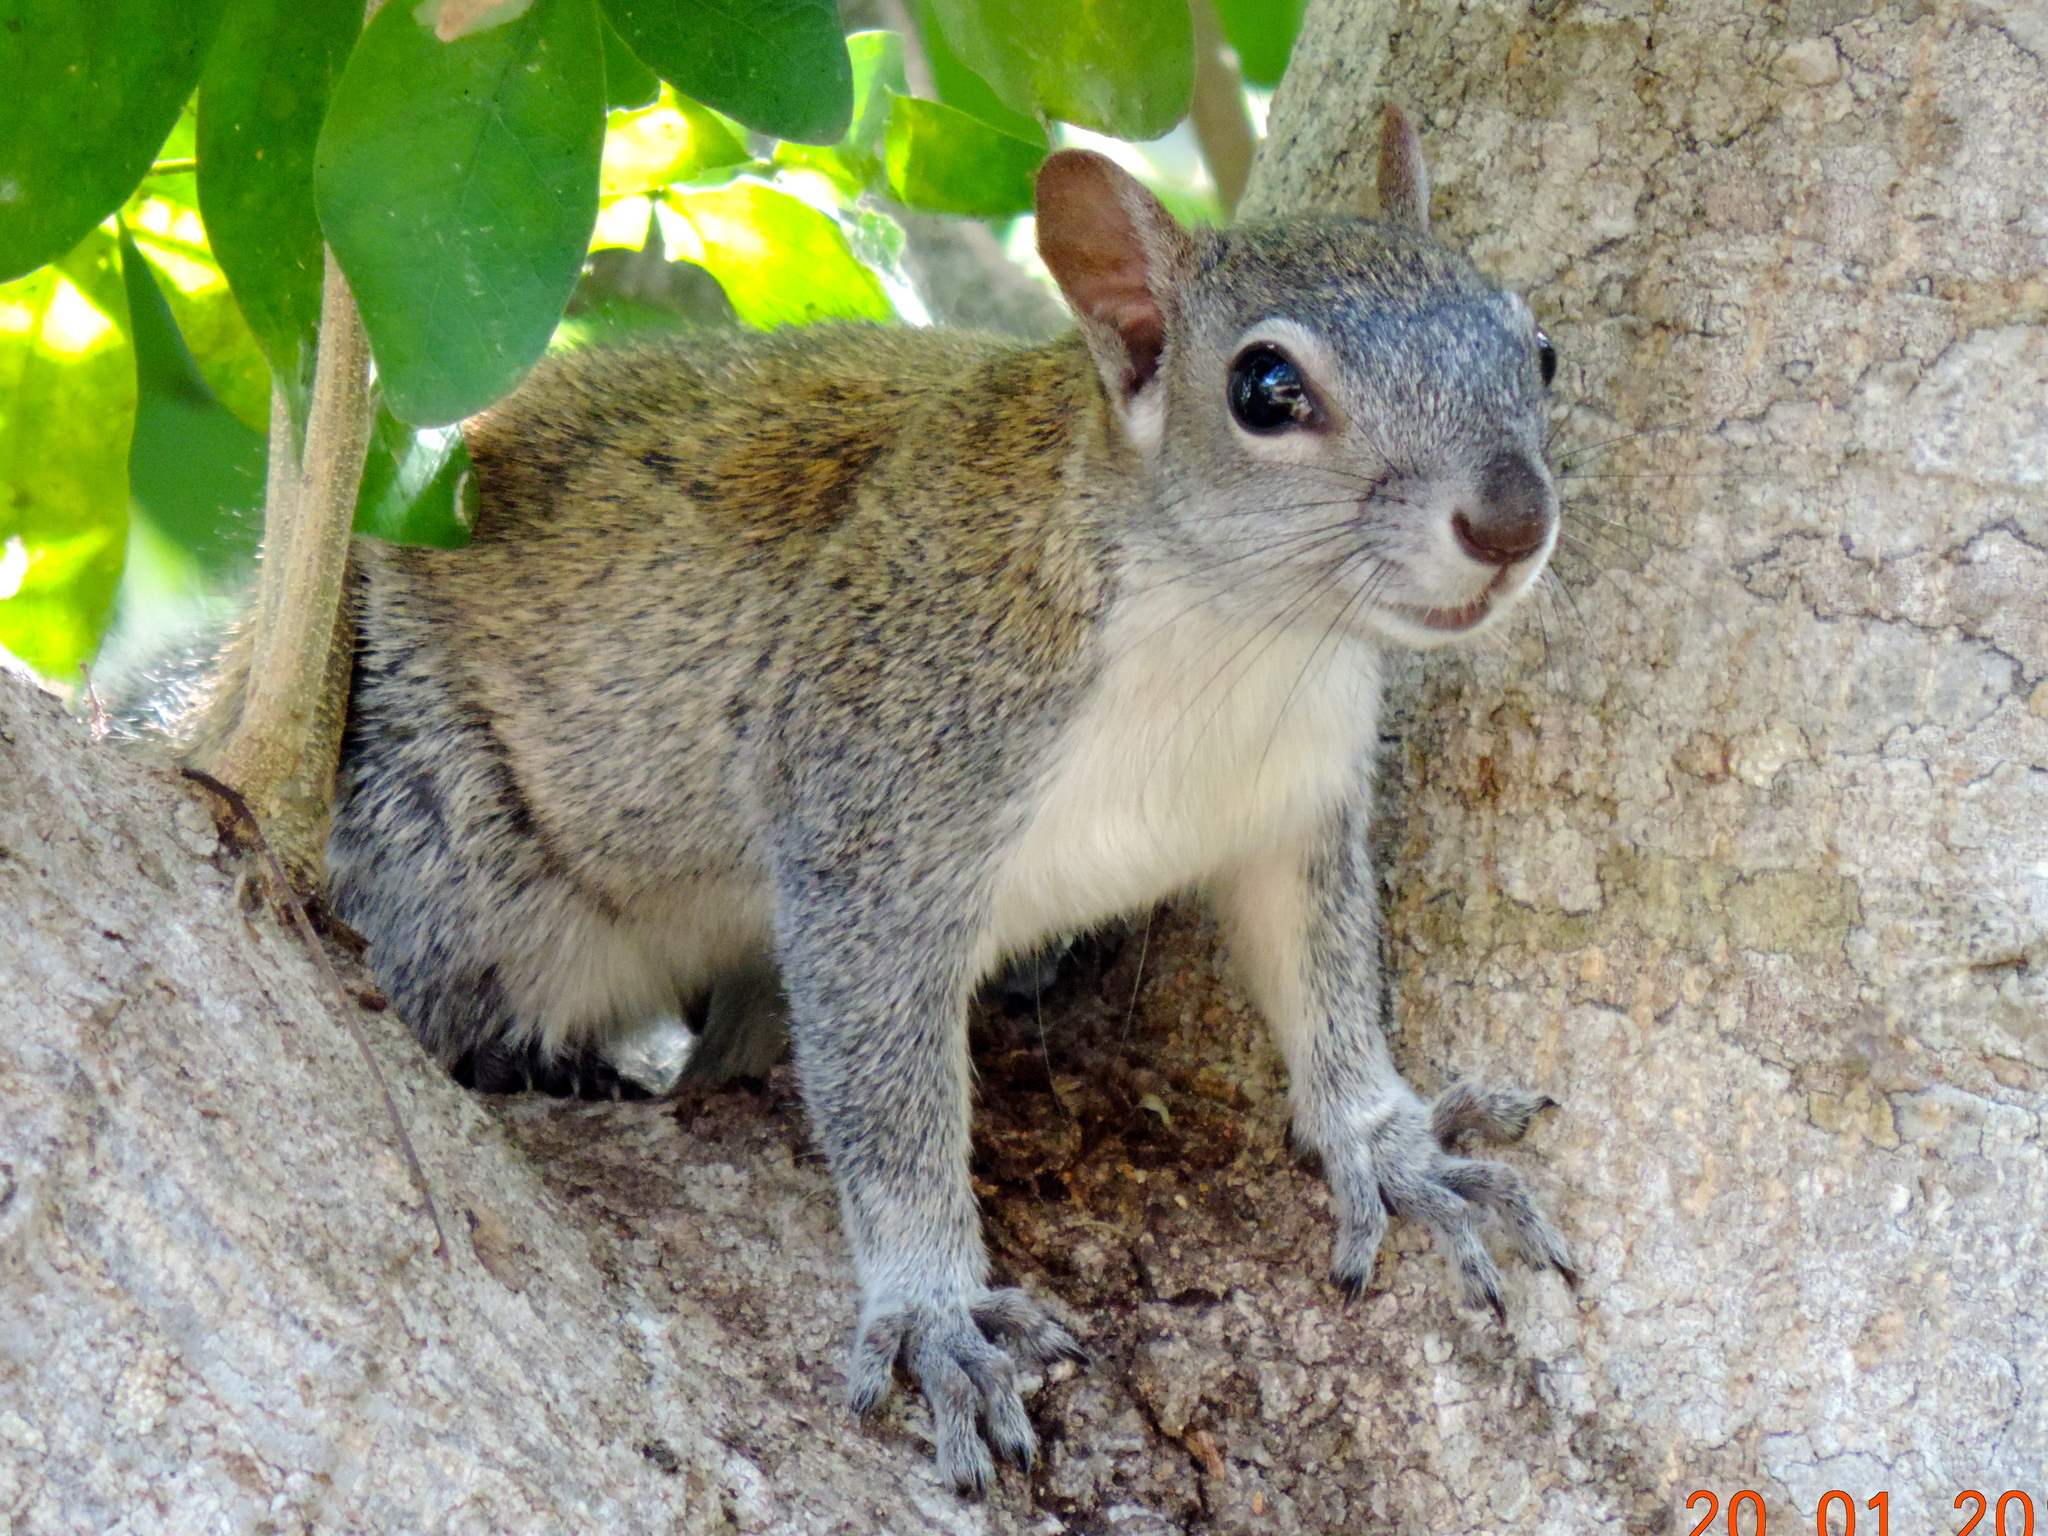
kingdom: Animalia
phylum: Chordata
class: Mammalia
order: Rodentia
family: Sciuridae
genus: Sciurus
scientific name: Sciurus colliaei
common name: Collie's squirrel
